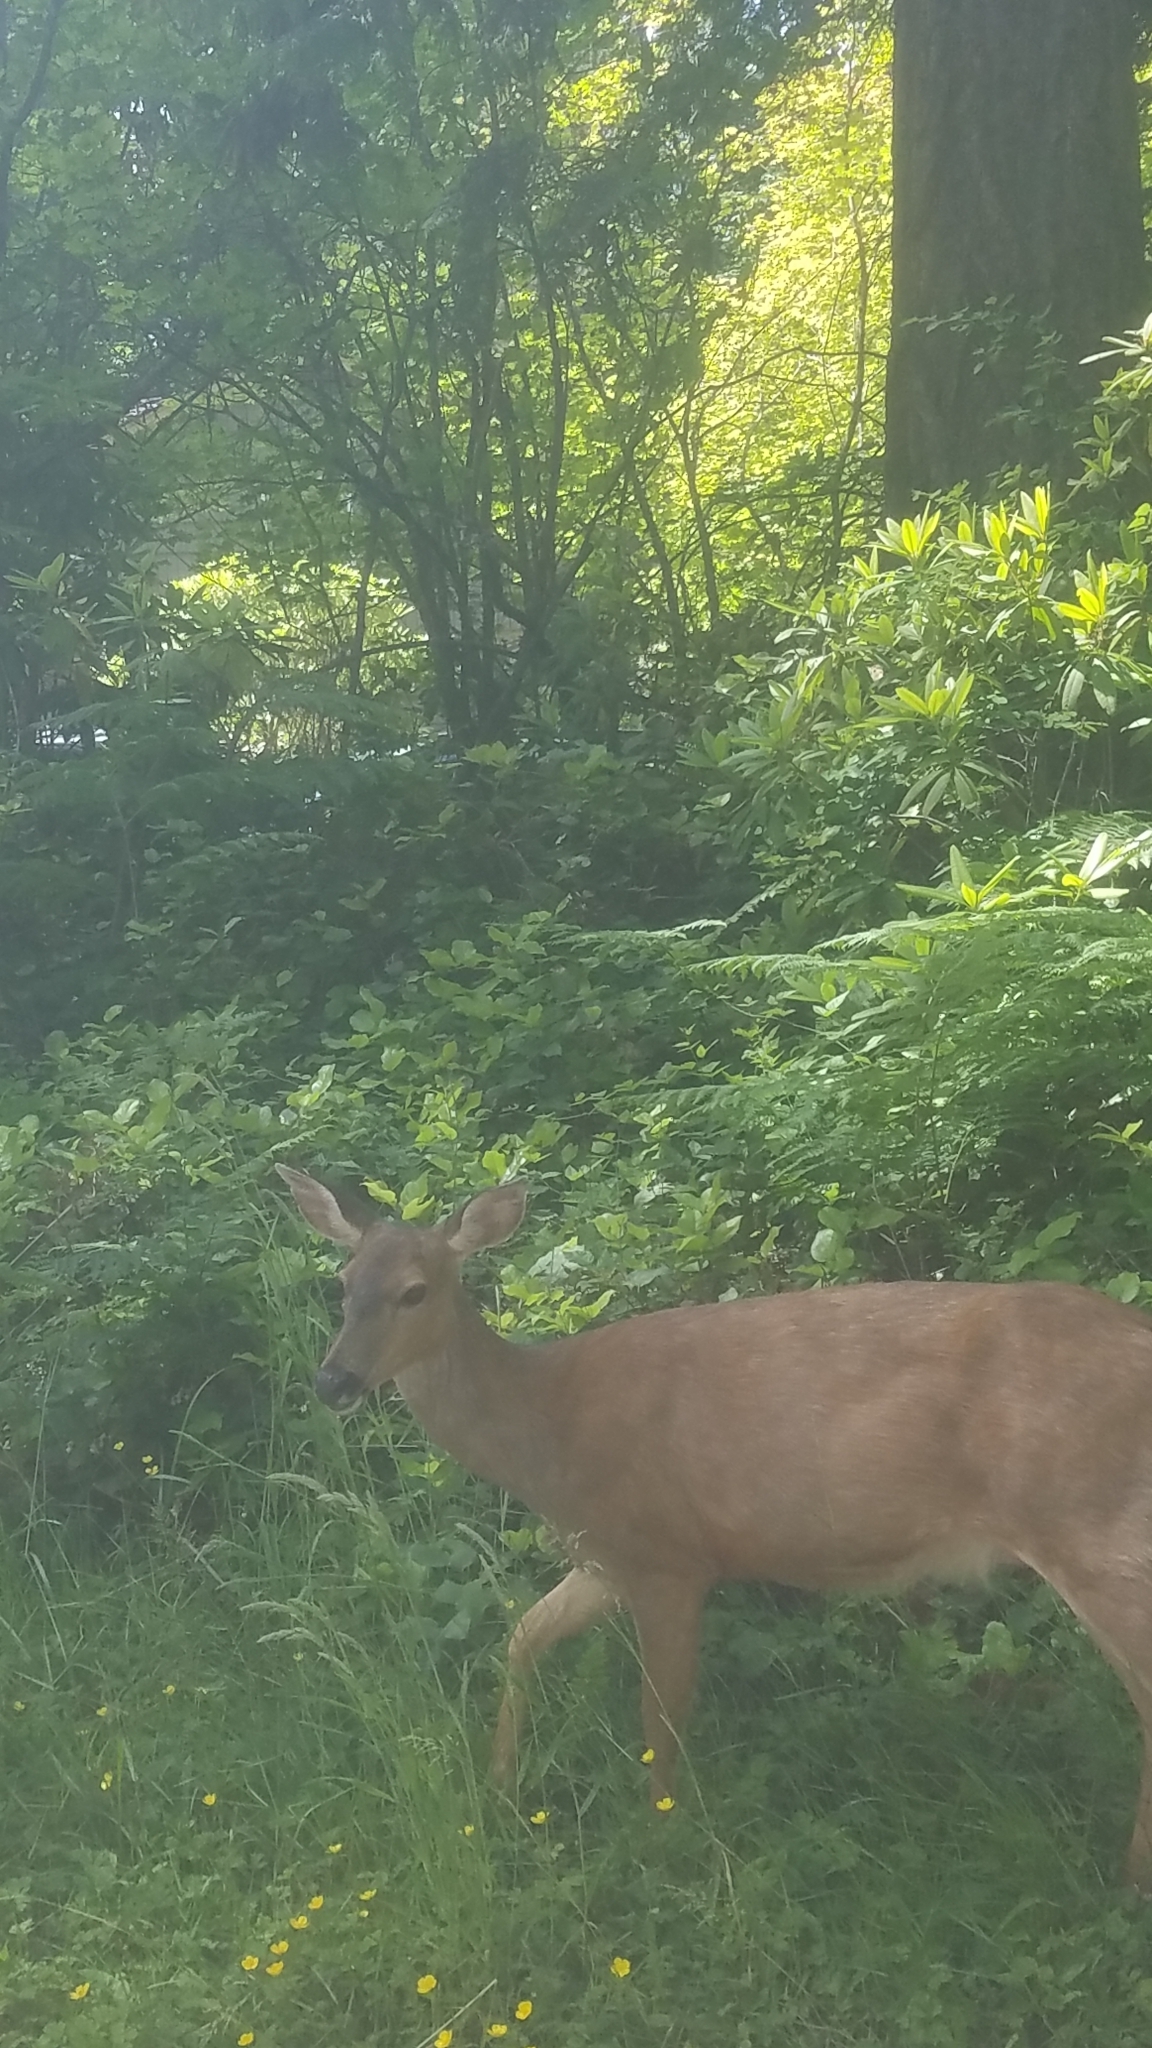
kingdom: Animalia
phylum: Chordata
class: Mammalia
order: Artiodactyla
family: Cervidae
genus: Odocoileus
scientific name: Odocoileus hemionus
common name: Mule deer
